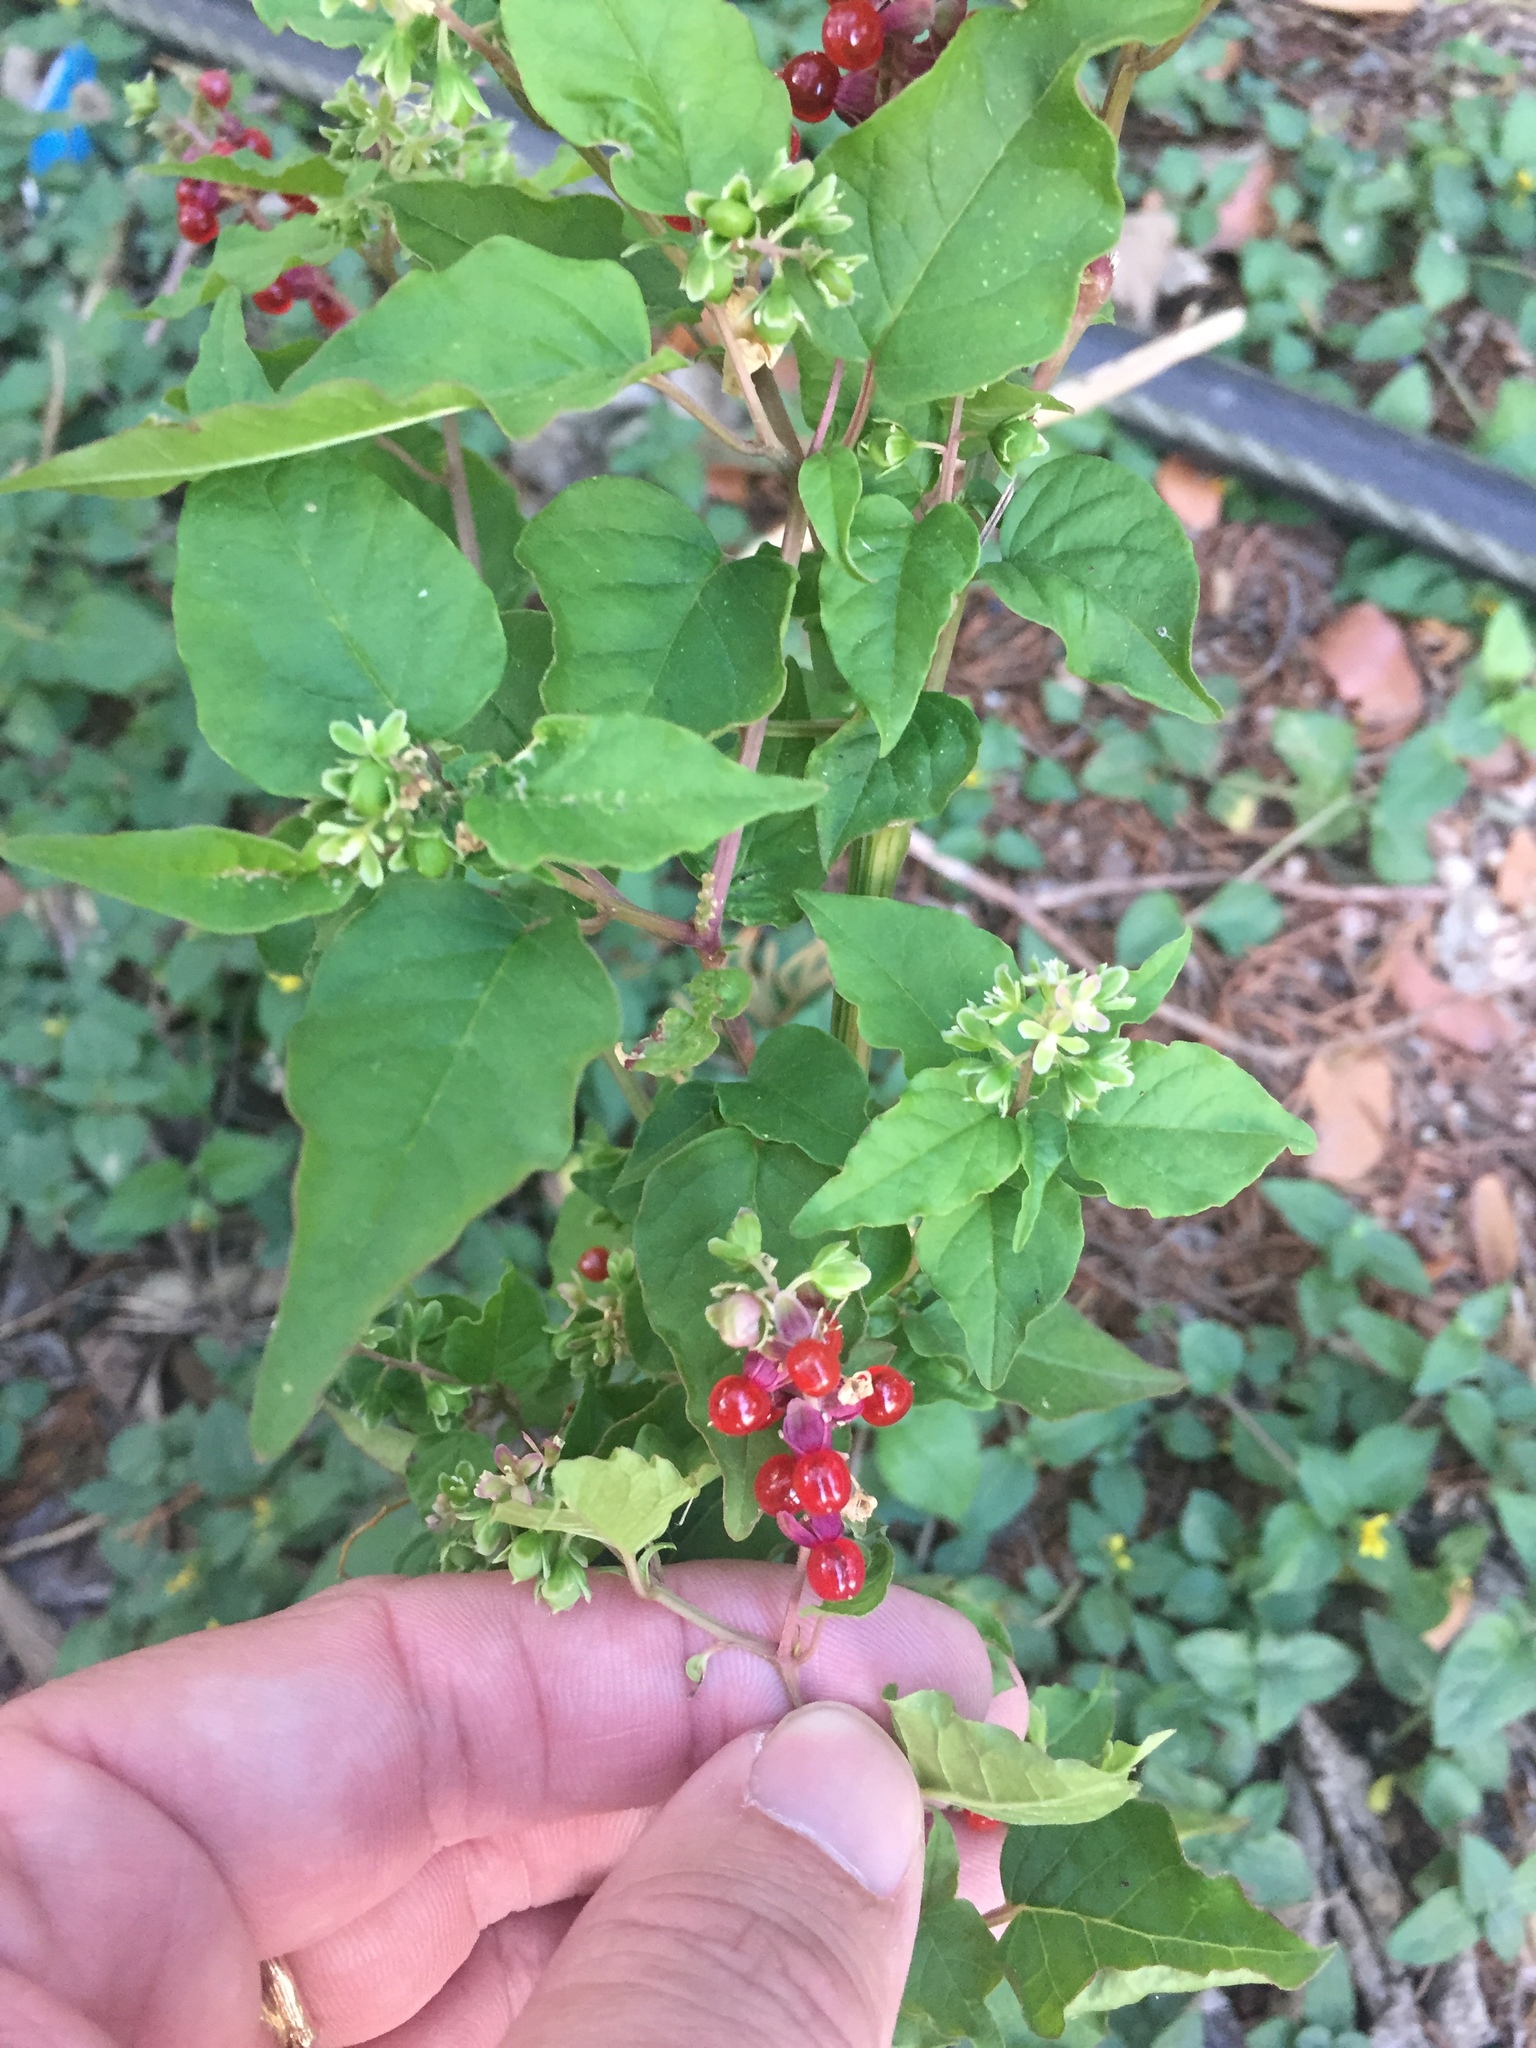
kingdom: Plantae
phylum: Tracheophyta
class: Magnoliopsida
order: Caryophyllales
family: Phytolaccaceae
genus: Rivina
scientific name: Rivina humilis
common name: Rougeplant
